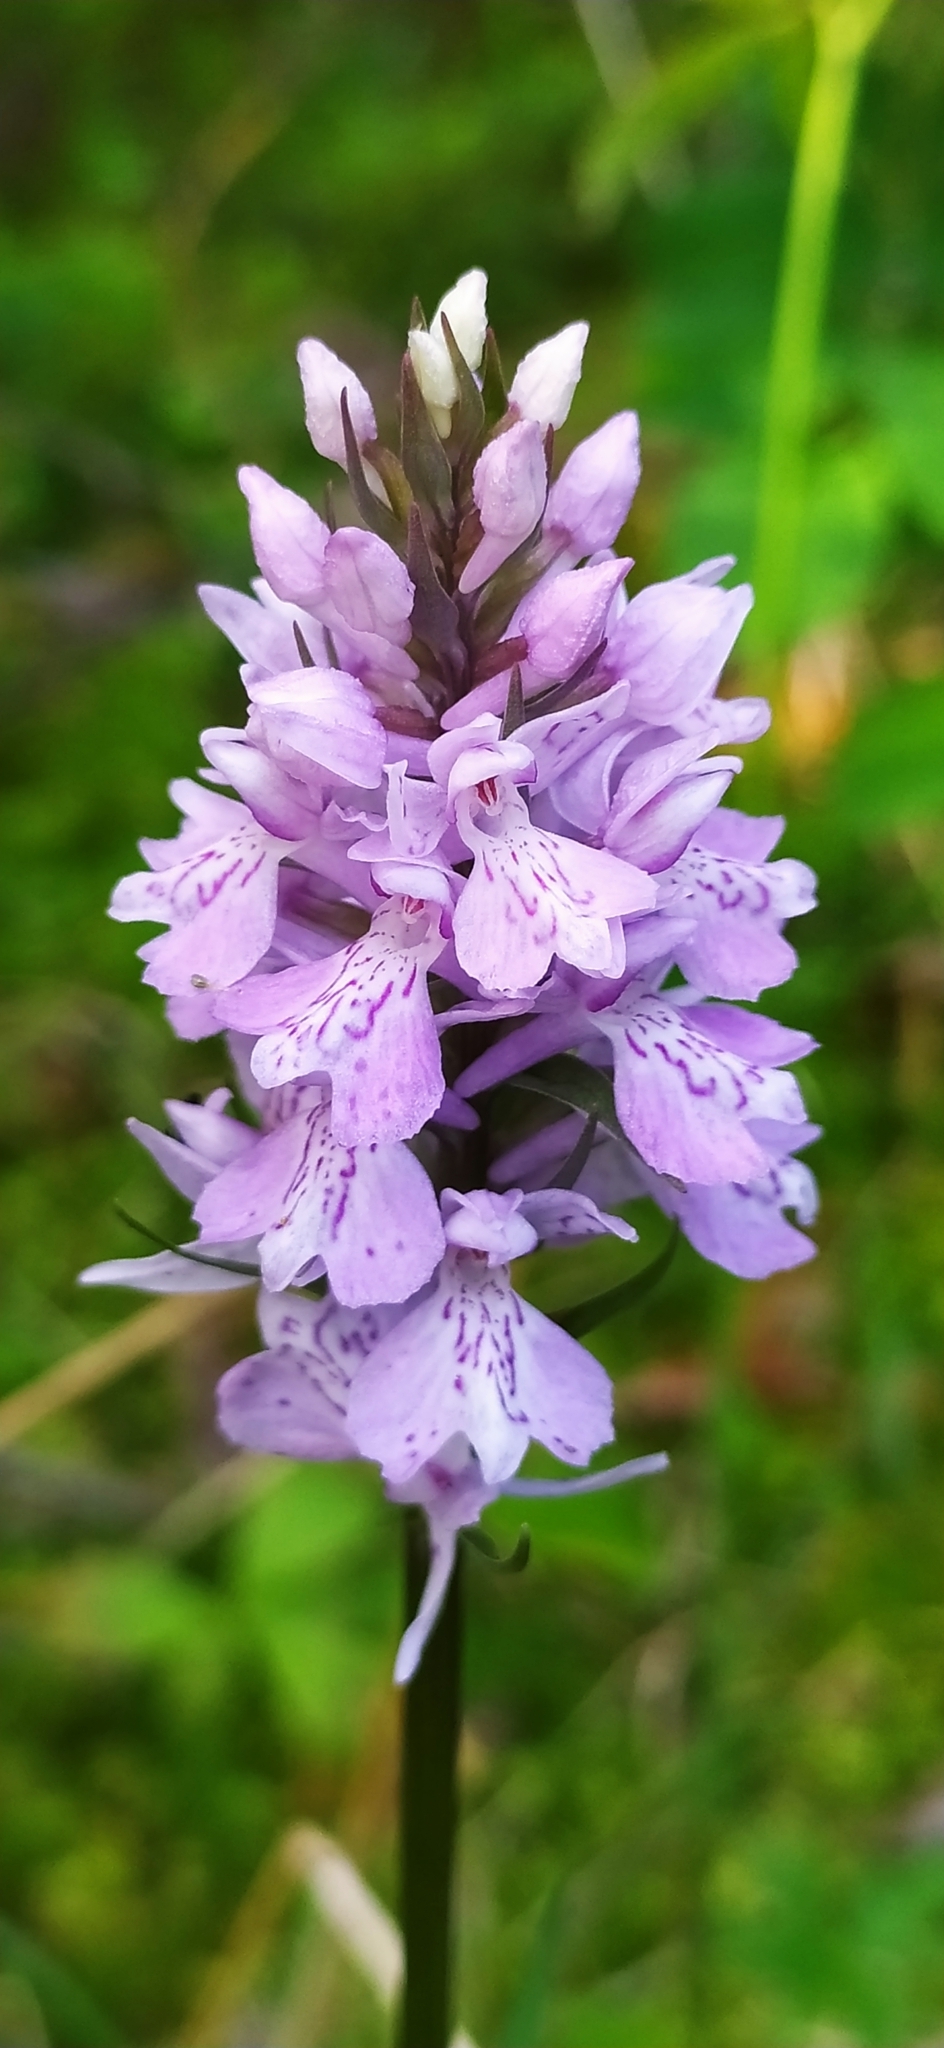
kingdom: Plantae
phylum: Tracheophyta
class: Liliopsida
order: Asparagales
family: Orchidaceae
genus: Dactylorhiza
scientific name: Dactylorhiza maculata
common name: Heath spotted-orchid
